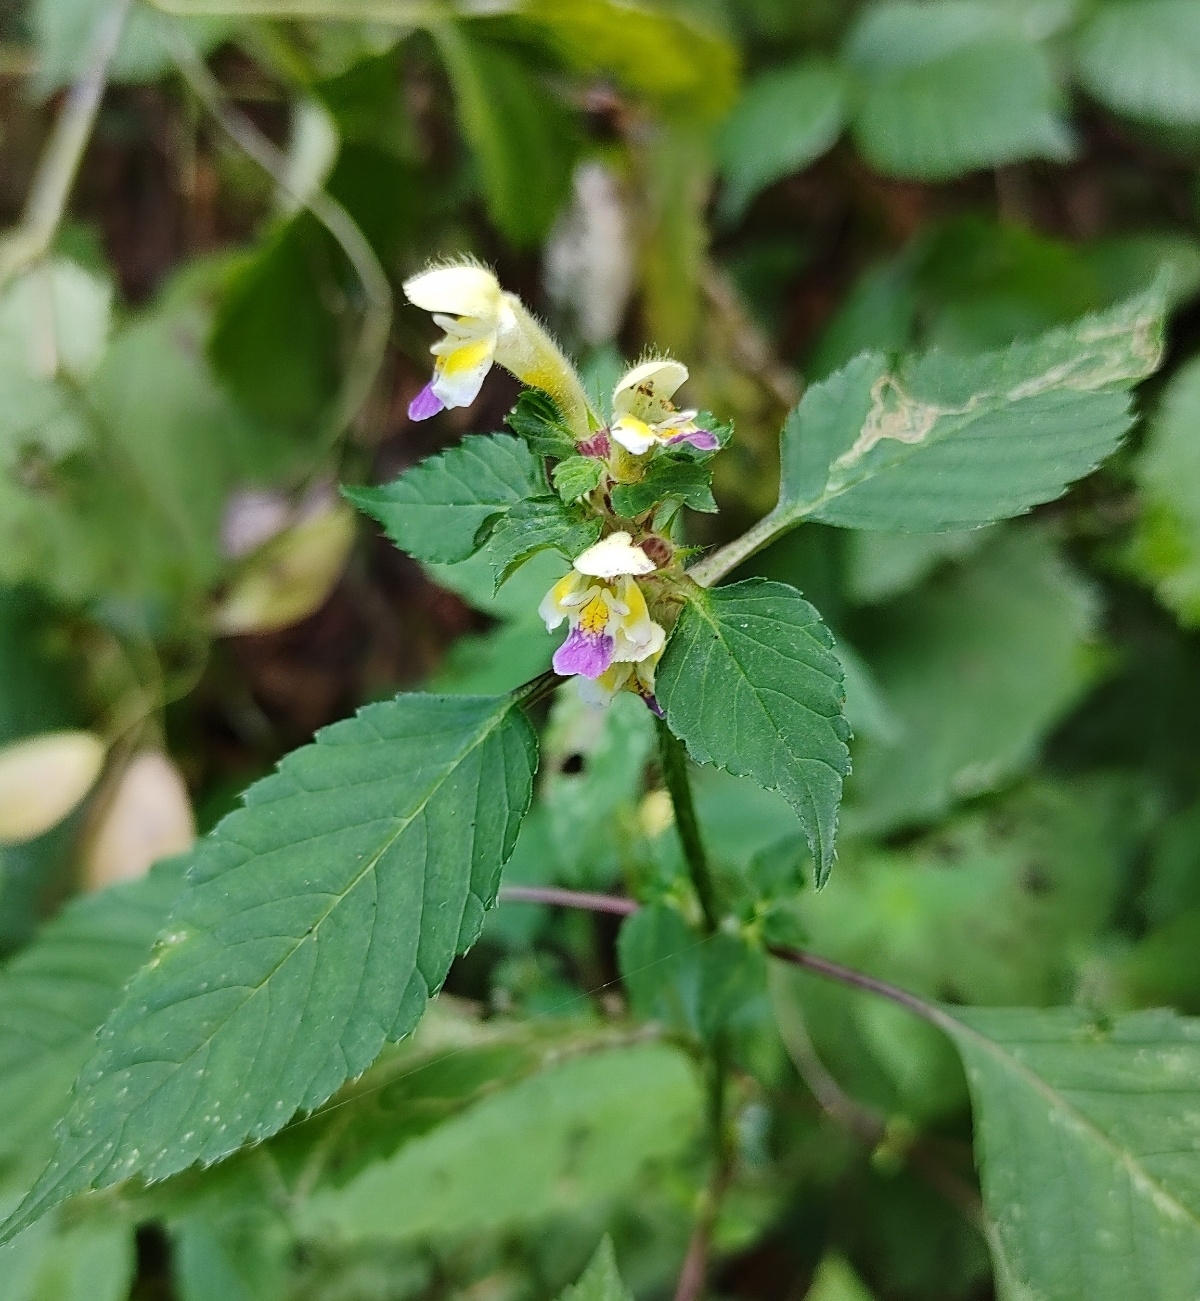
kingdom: Plantae
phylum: Tracheophyta
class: Magnoliopsida
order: Lamiales
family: Lamiaceae
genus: Galeopsis
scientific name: Galeopsis speciosa
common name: Large-flowered hemp-nettle
